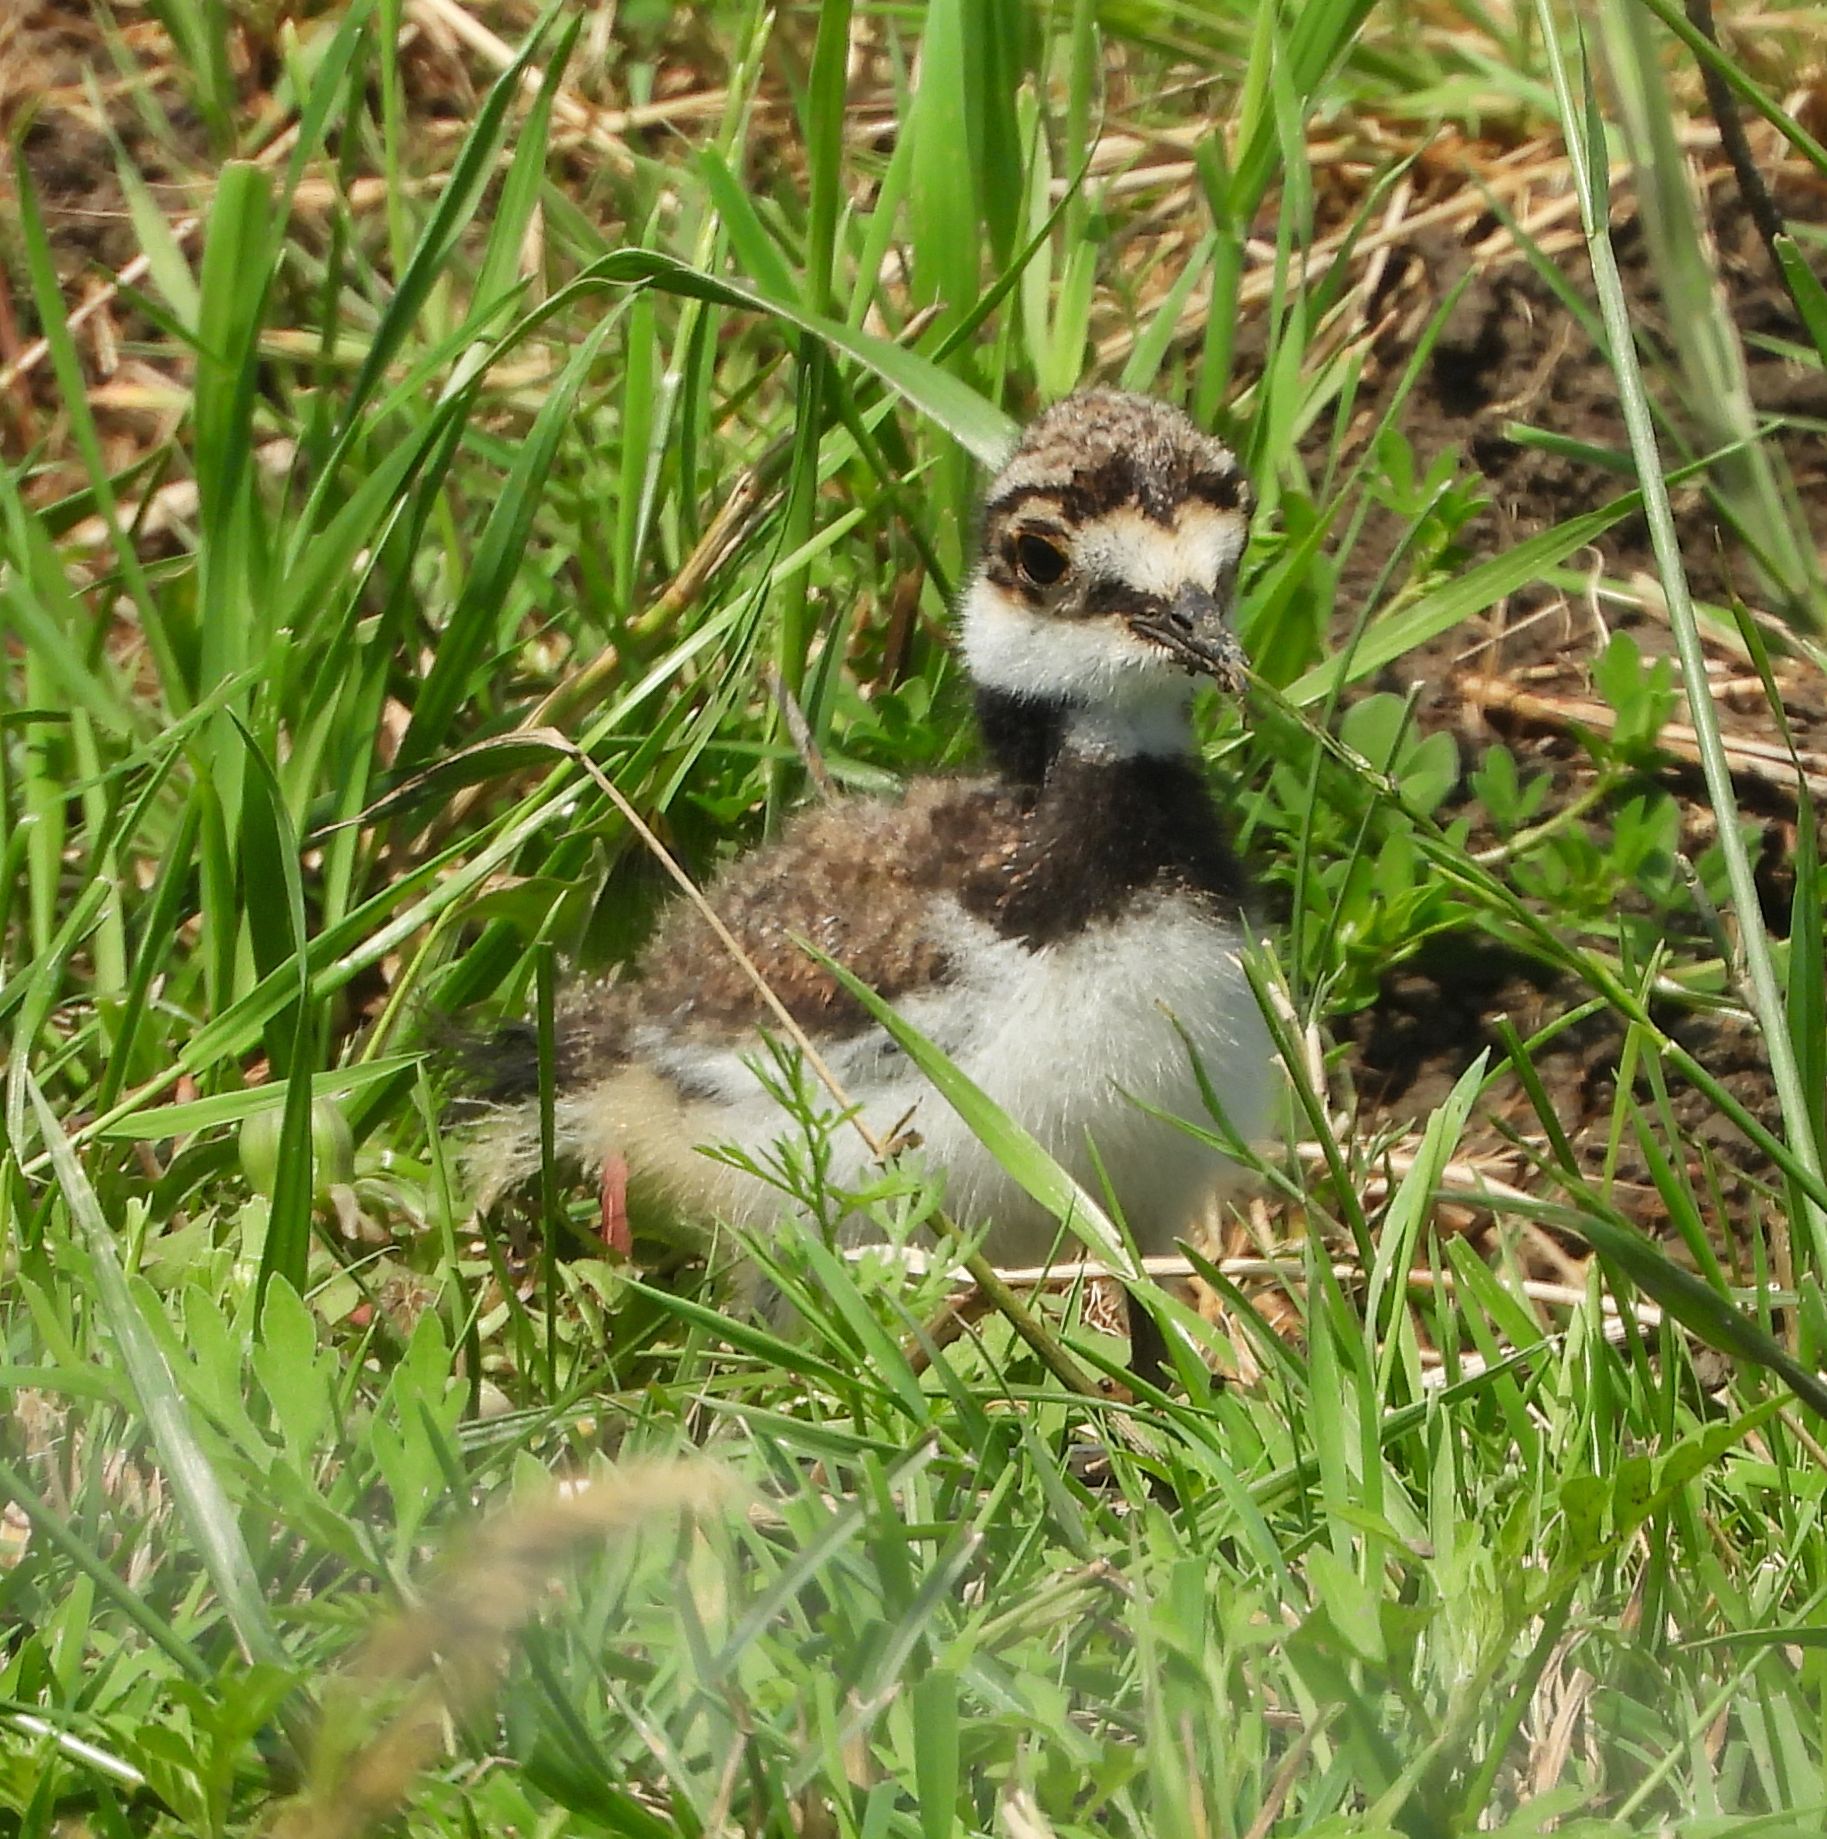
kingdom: Animalia
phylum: Chordata
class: Aves
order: Charadriiformes
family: Charadriidae
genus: Charadrius
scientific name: Charadrius vociferus
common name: Killdeer
